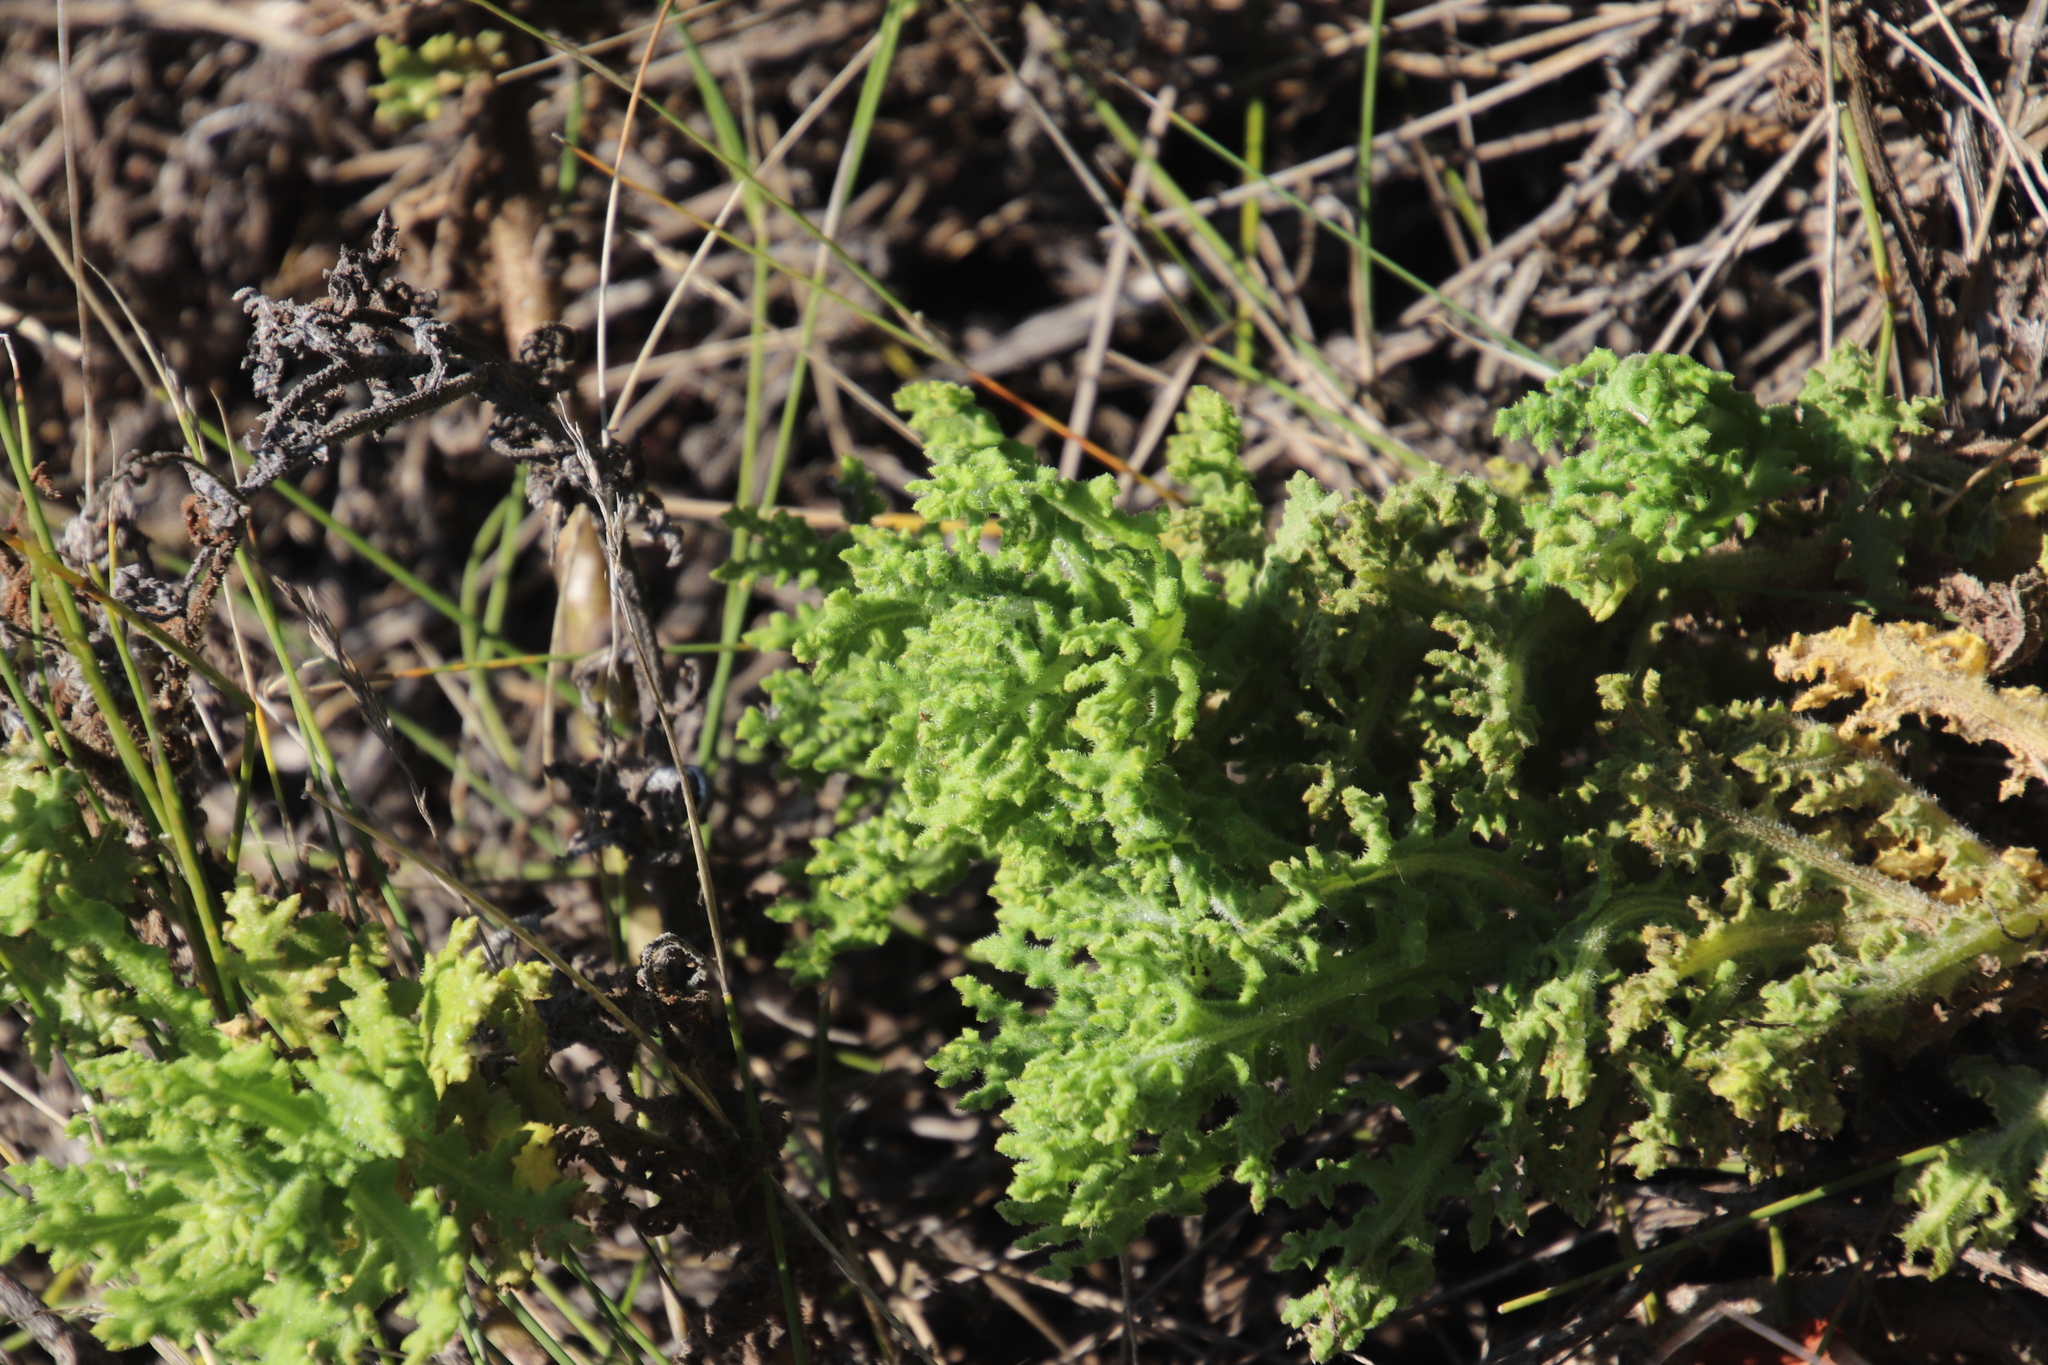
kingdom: Plantae
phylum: Tracheophyta
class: Magnoliopsida
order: Asterales
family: Asteraceae
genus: Arctotis
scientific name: Arctotis aspera
